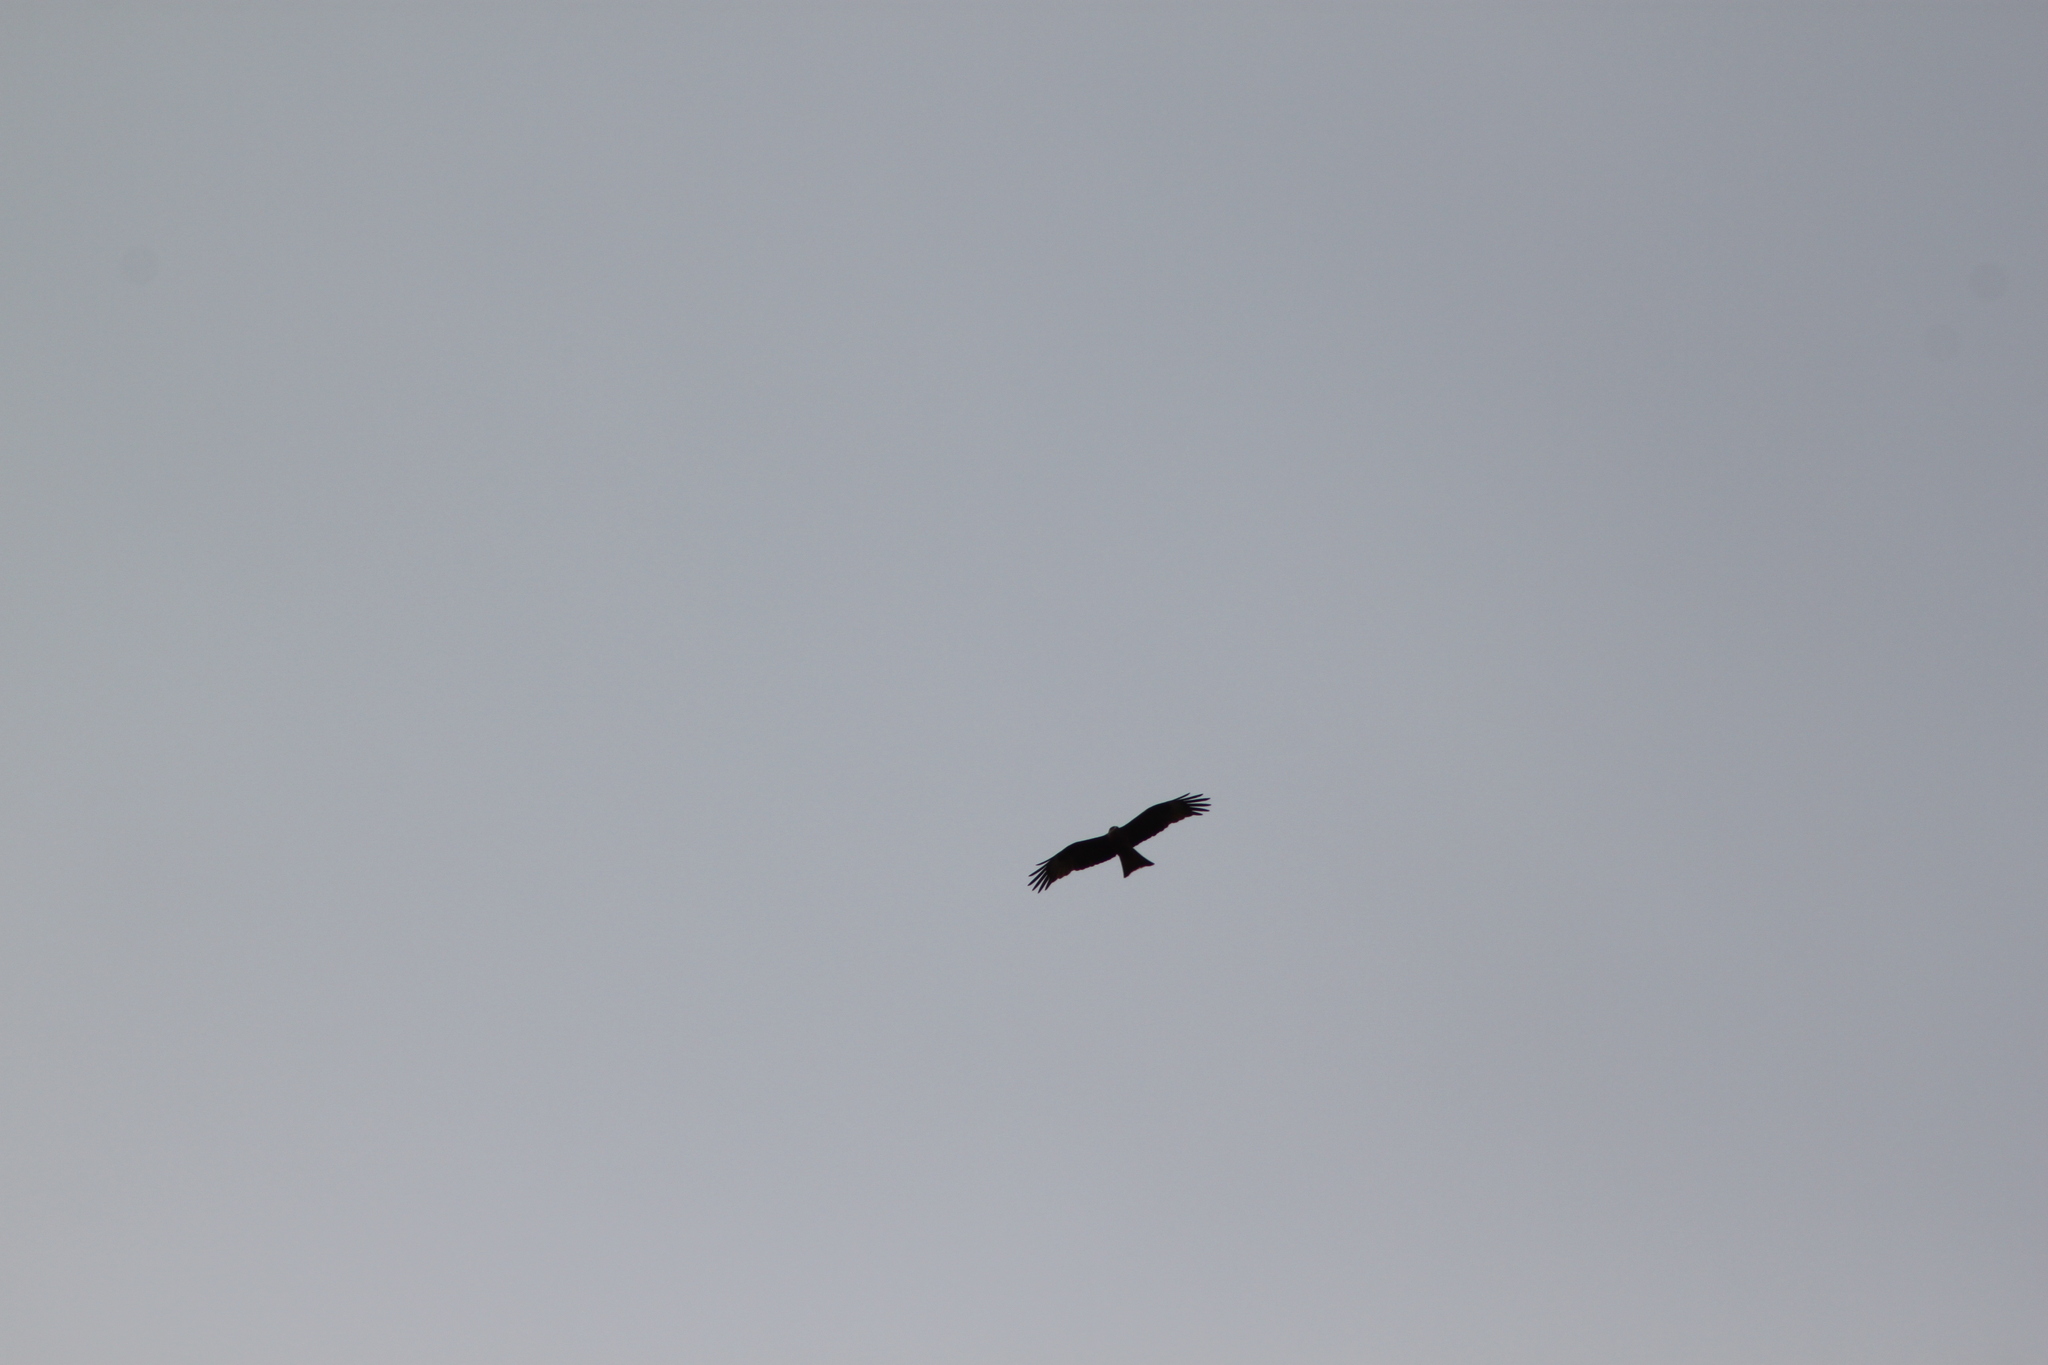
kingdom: Animalia
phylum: Chordata
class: Aves
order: Accipitriformes
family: Accipitridae
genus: Milvus
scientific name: Milvus migrans
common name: Black kite
